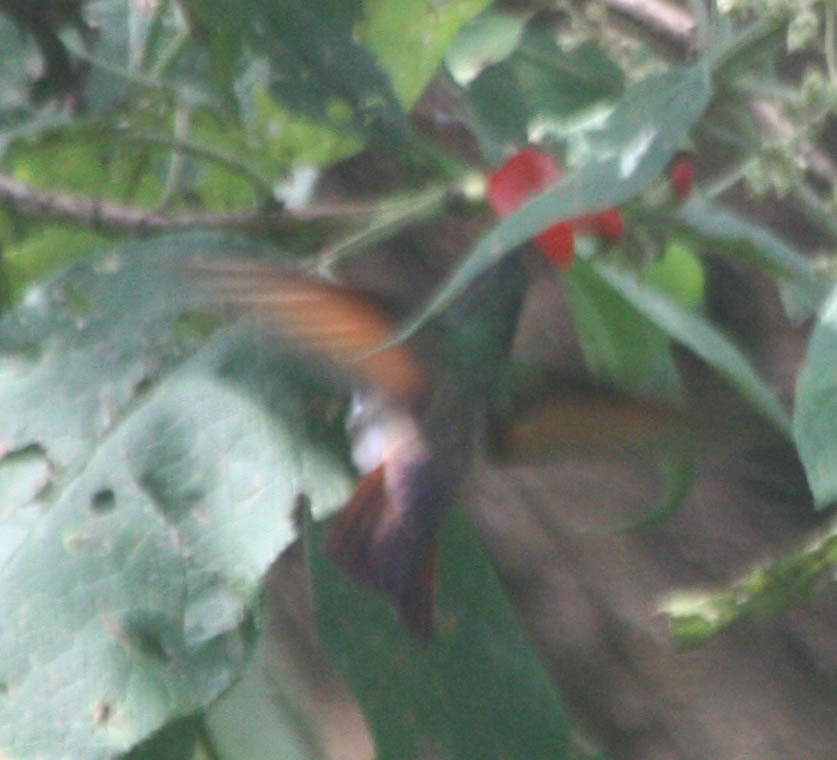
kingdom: Animalia
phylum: Chordata
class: Aves
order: Apodiformes
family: Trochilidae
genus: Saucerottia
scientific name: Saucerottia beryllina
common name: Berylline hummingbird
